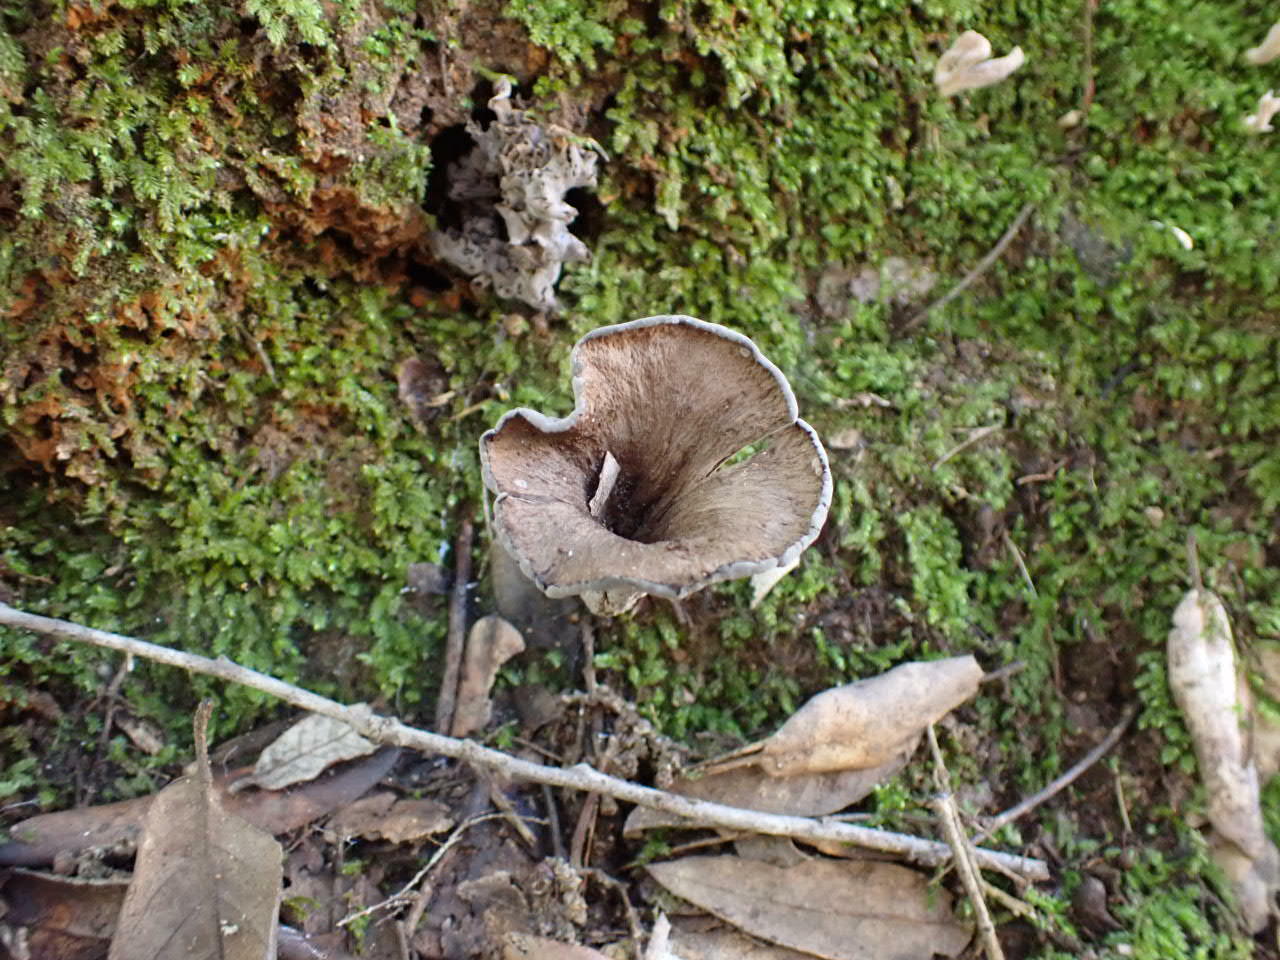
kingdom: Fungi
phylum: Basidiomycota
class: Agaricomycetes
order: Cantharellales
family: Hydnaceae
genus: Craterellus
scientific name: Craterellus cornucopioides
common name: Horn of plenty
